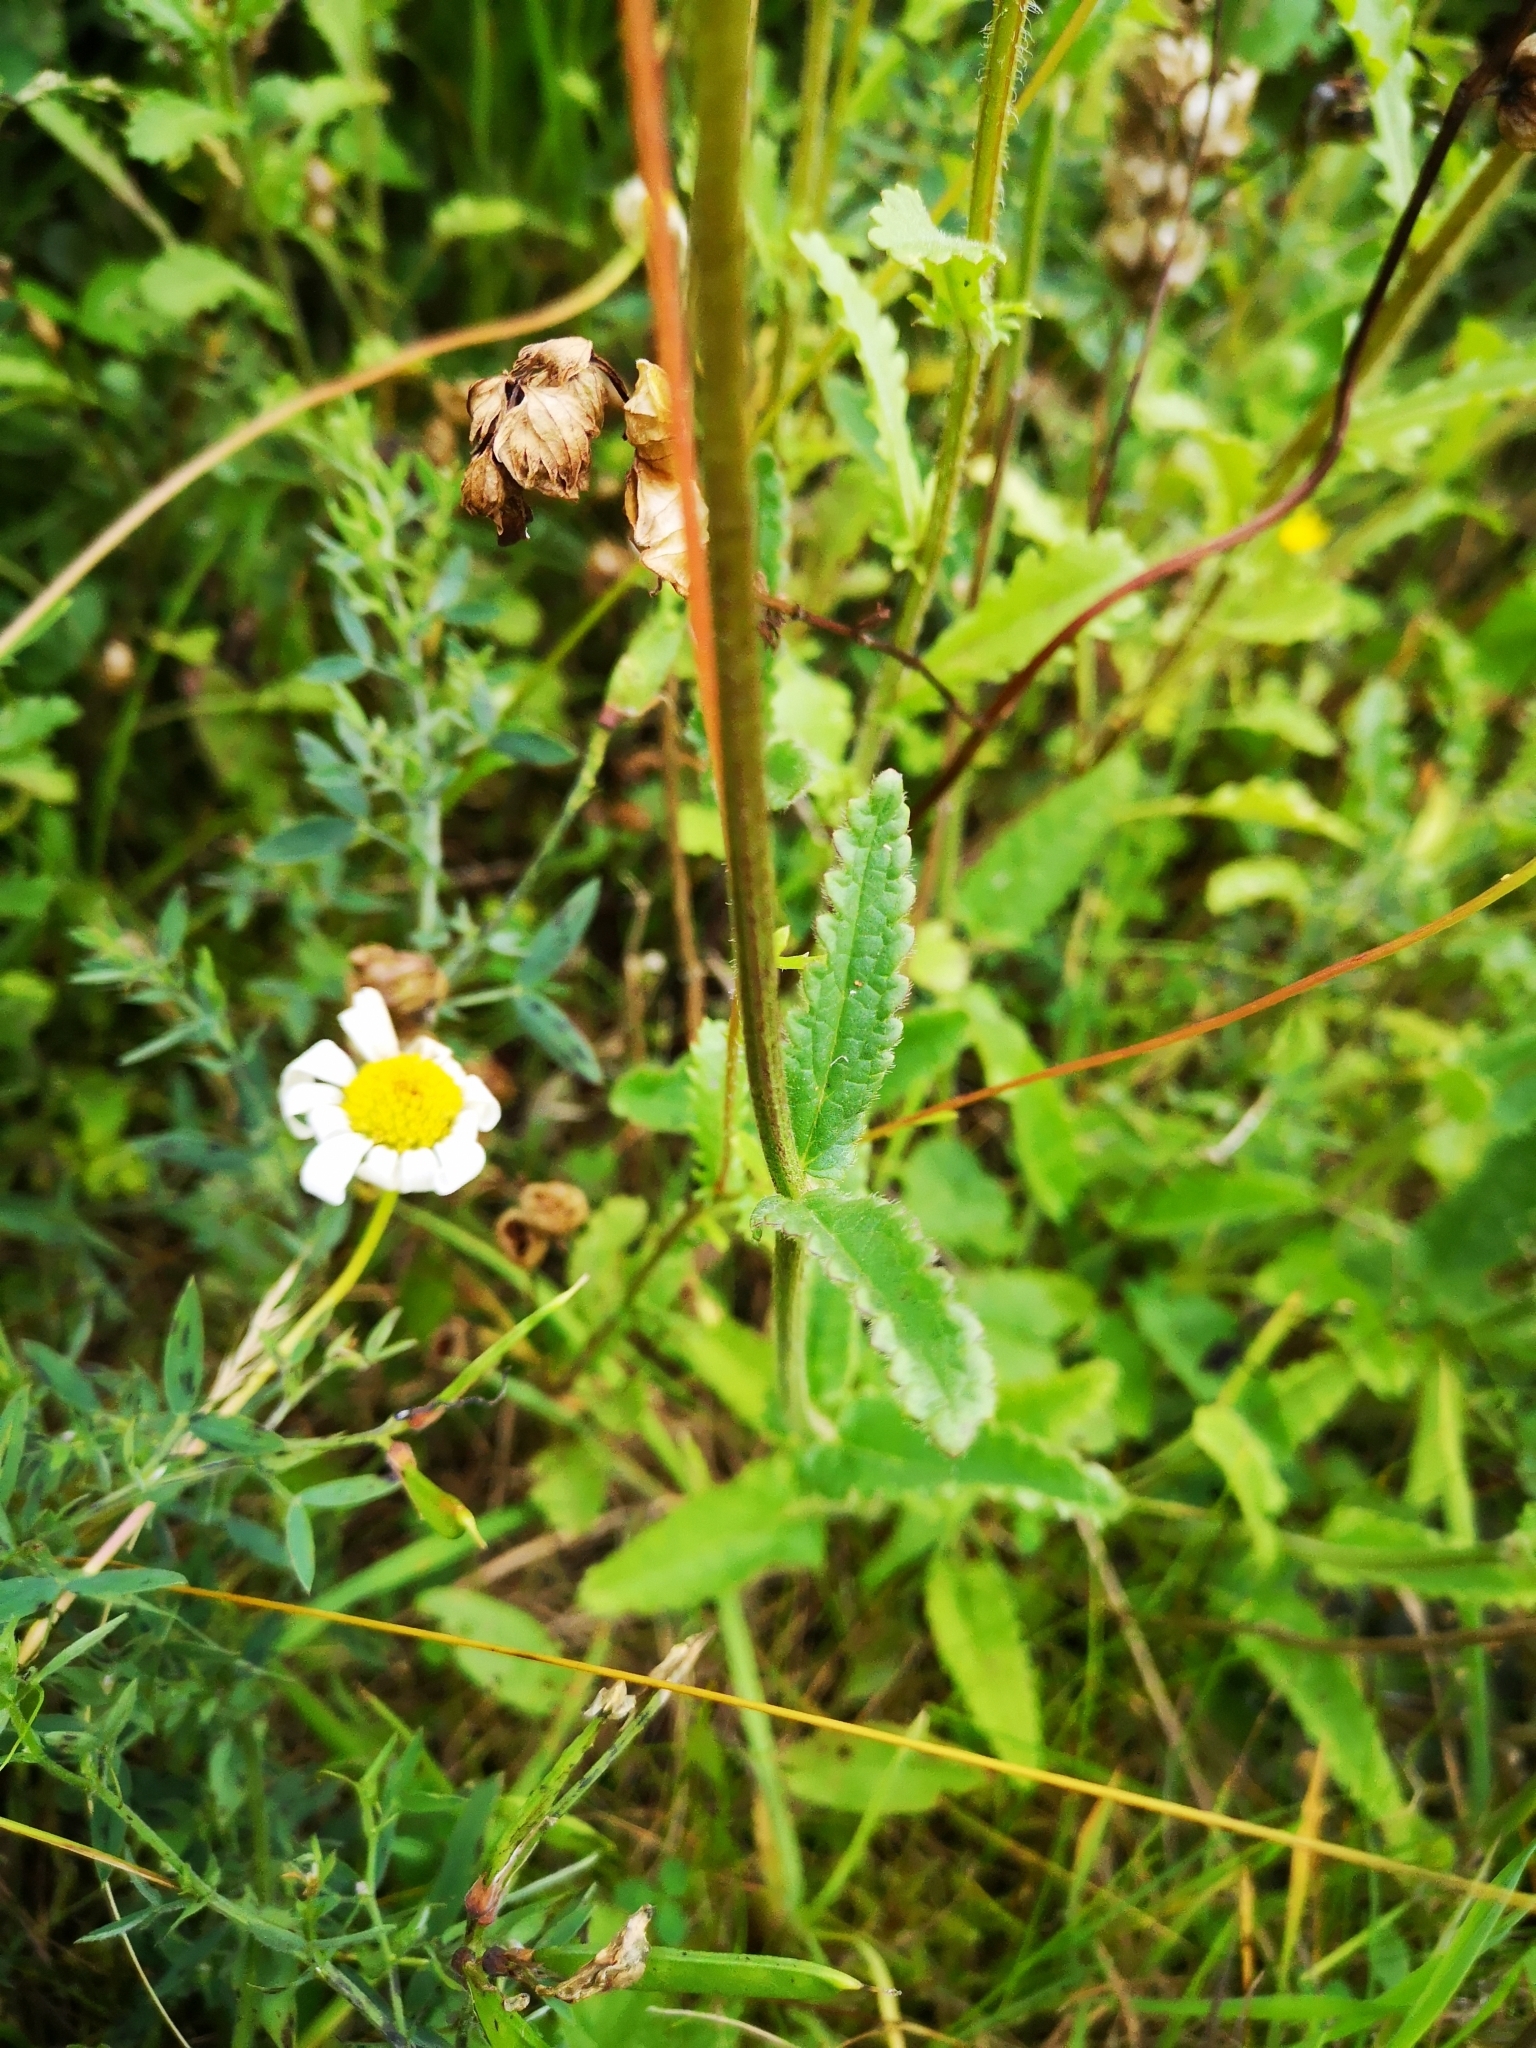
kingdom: Plantae
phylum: Tracheophyta
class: Magnoliopsida
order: Lamiales
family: Lamiaceae
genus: Betonica
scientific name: Betonica officinalis
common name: Bishop's-wort
